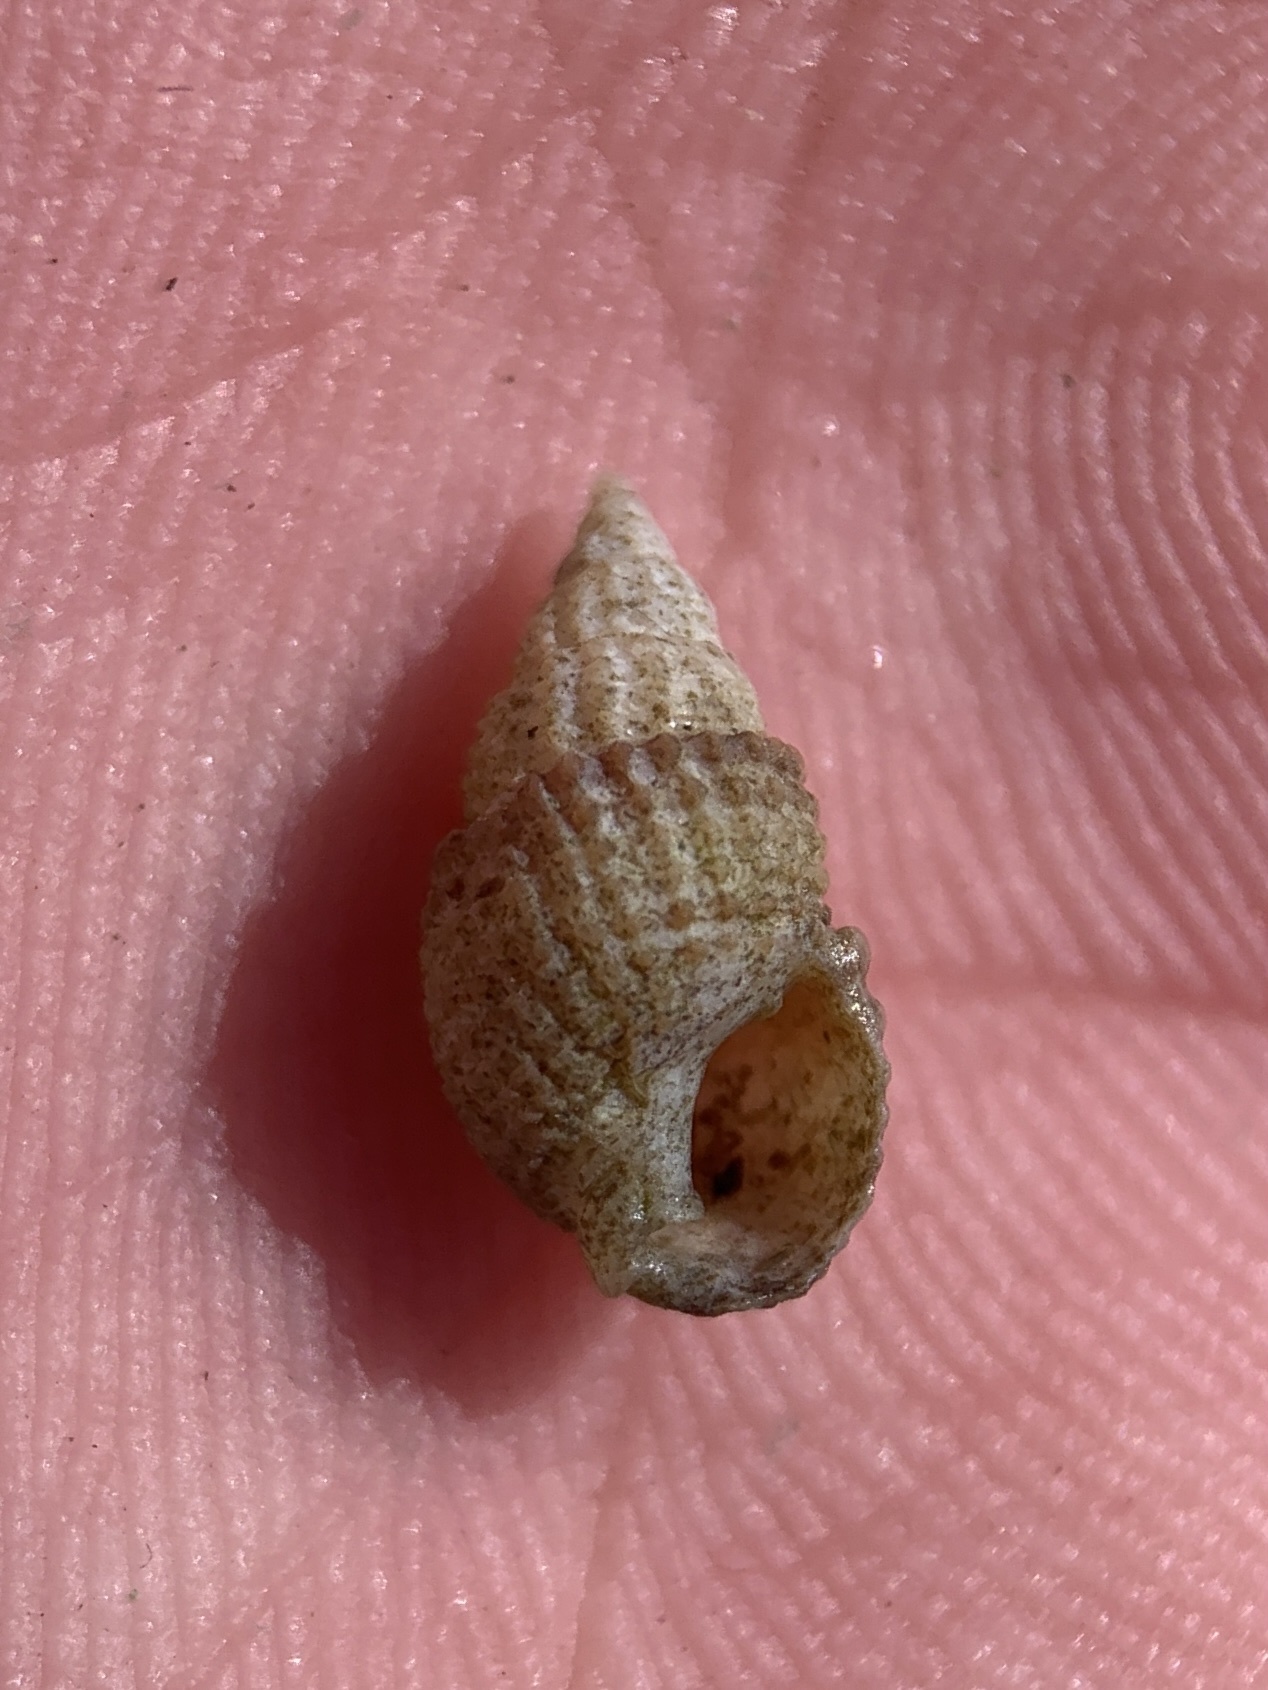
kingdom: Animalia
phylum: Mollusca
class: Gastropoda
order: Neogastropoda
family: Nassariidae
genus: Ilyanassa
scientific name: Ilyanassa trivittata
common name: Three-line mudsnail
